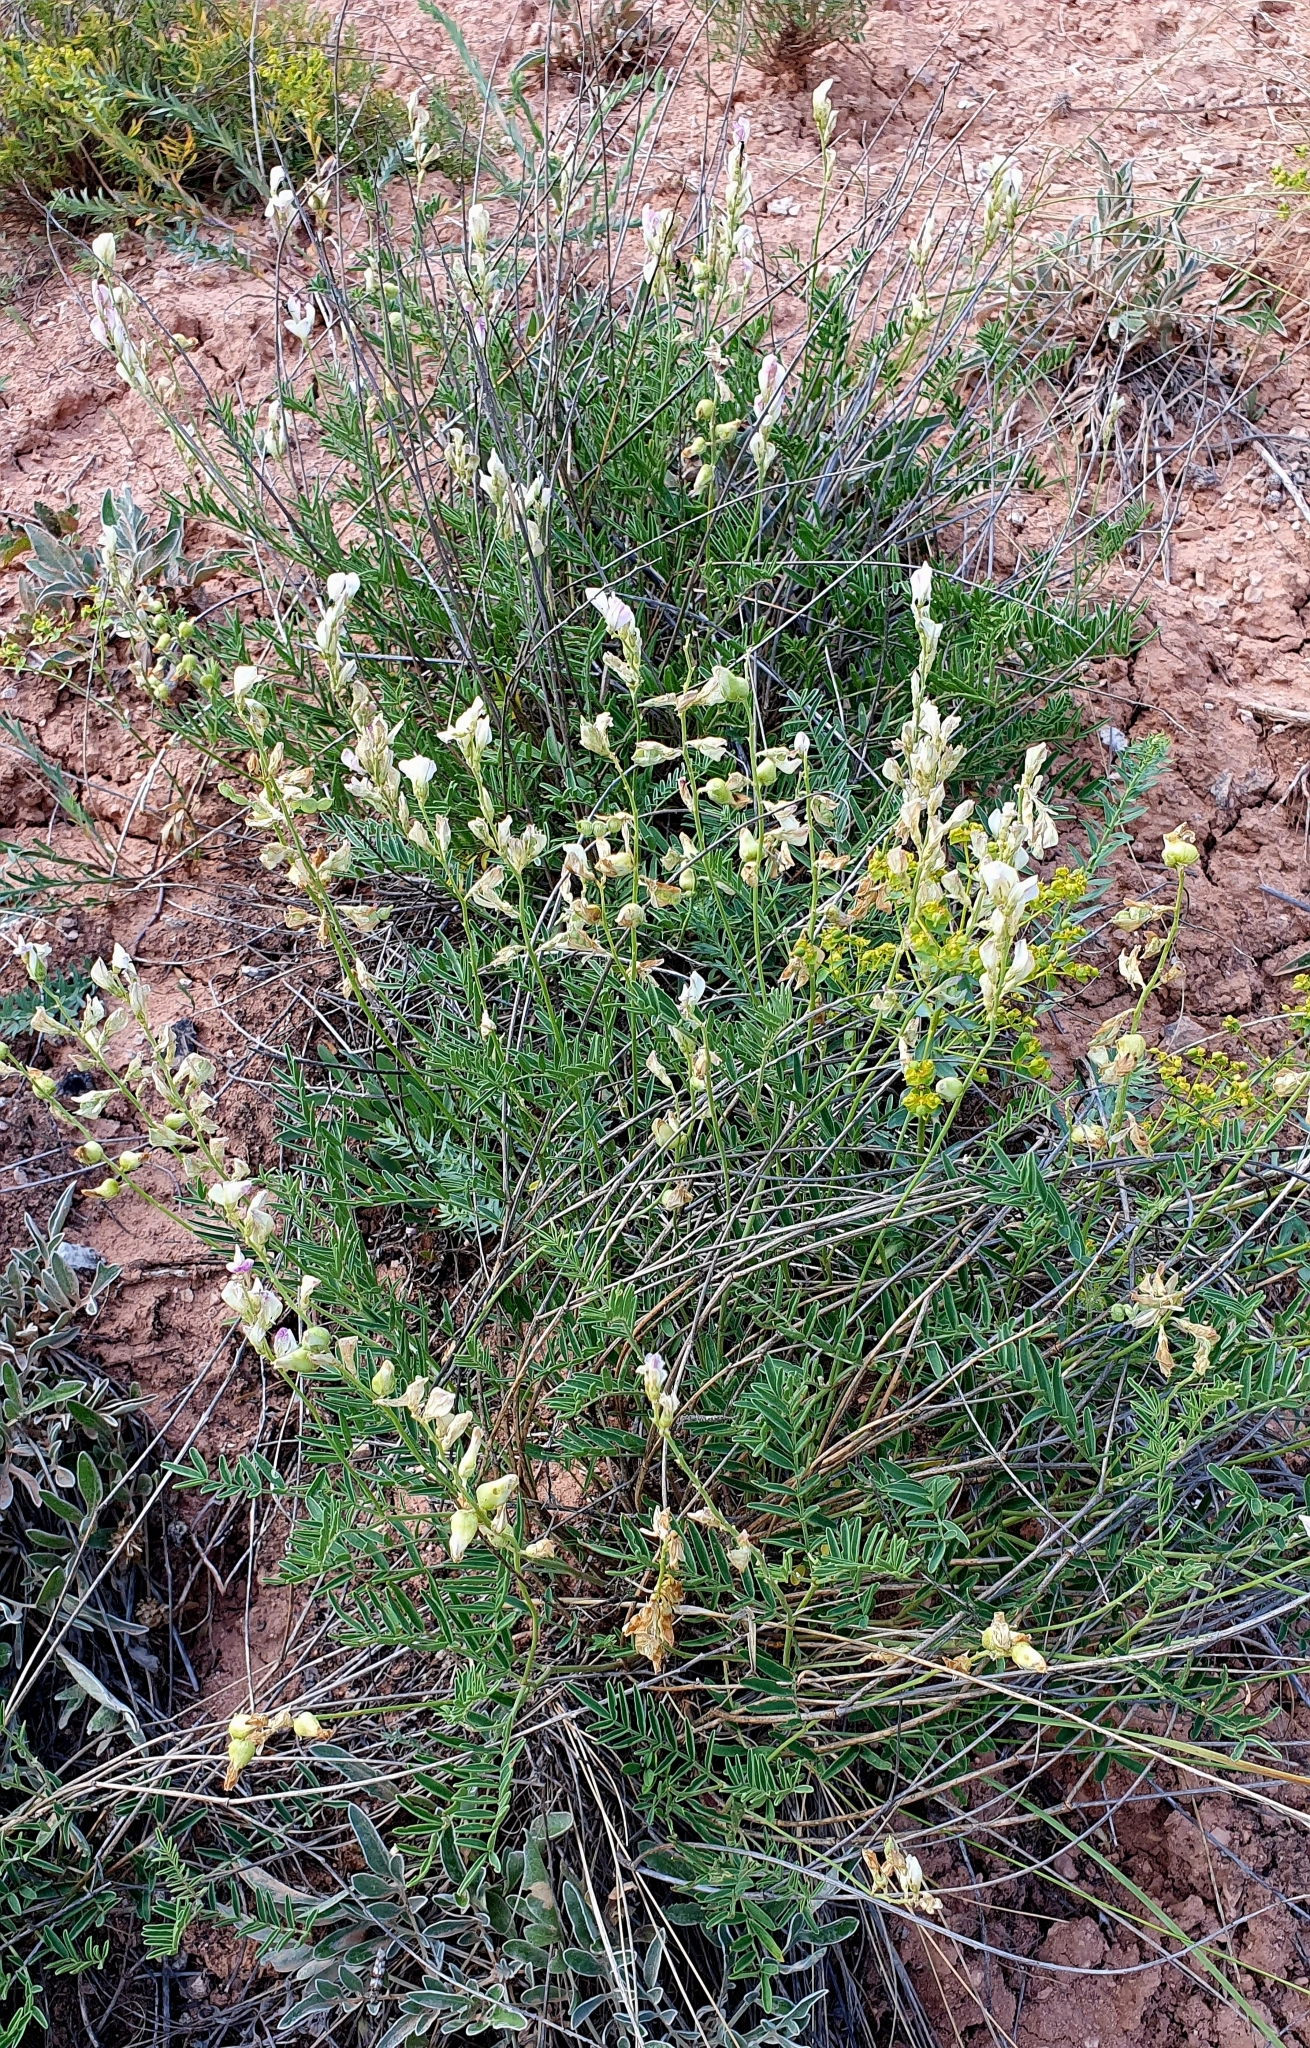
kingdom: Plantae
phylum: Tracheophyta
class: Magnoliopsida
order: Fabales
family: Fabaceae
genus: Hedysarum
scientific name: Hedysarum razoumovianum
